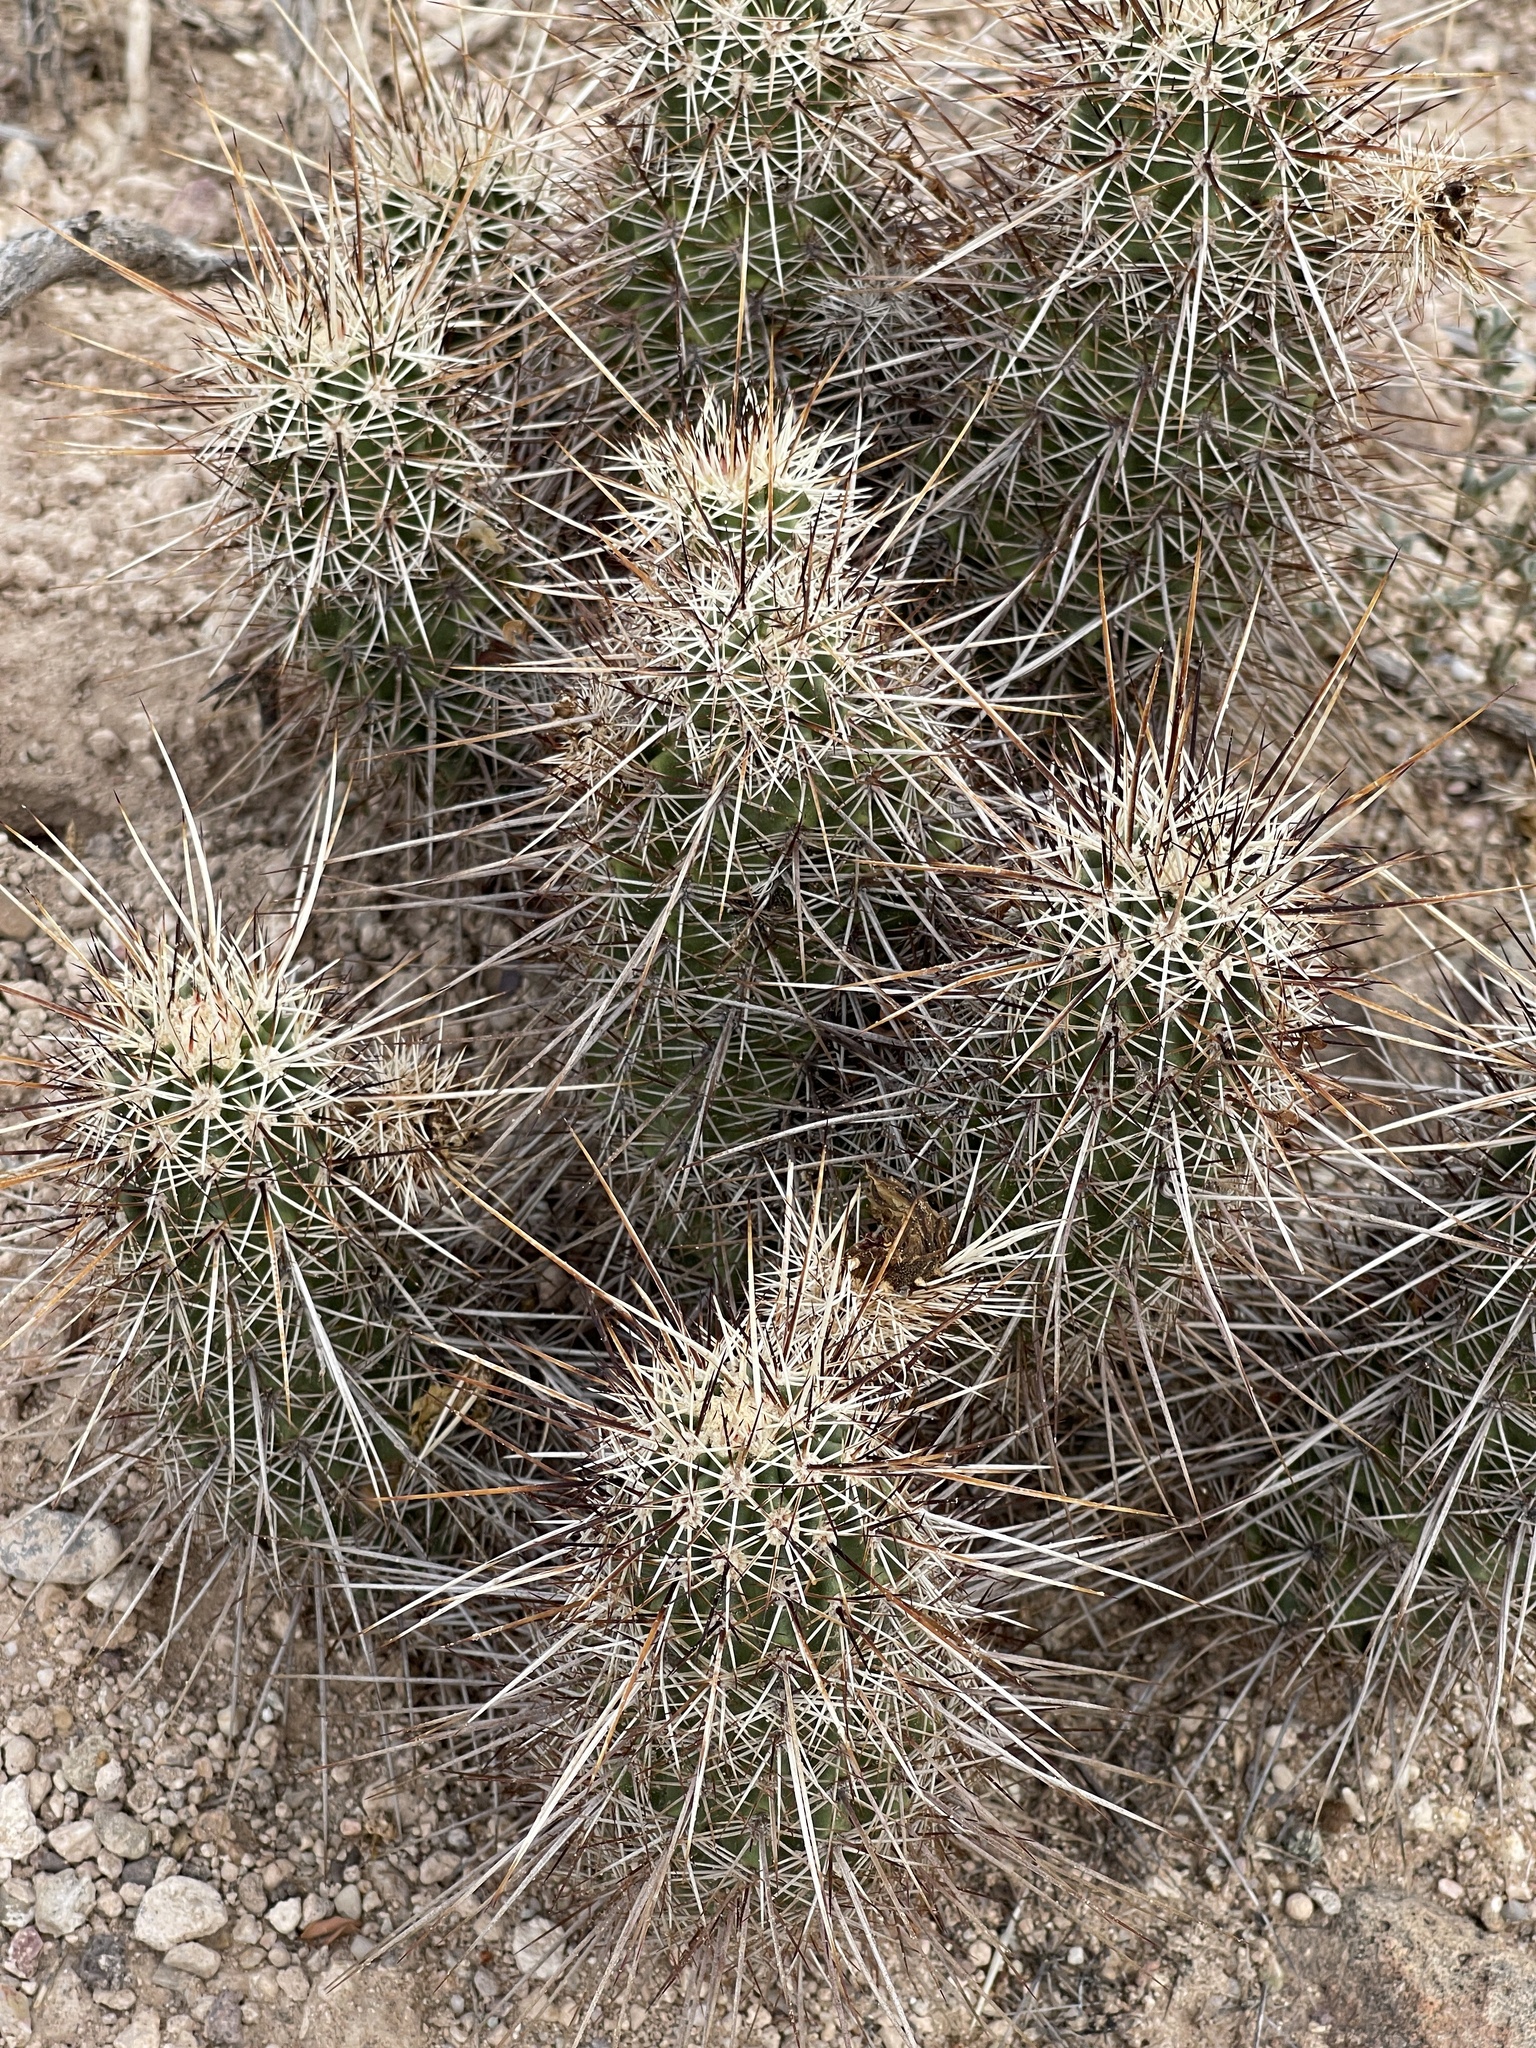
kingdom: Plantae
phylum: Tracheophyta
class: Magnoliopsida
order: Caryophyllales
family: Cactaceae
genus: Echinocereus
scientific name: Echinocereus fasciculatus
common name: Bundle hedgehog
